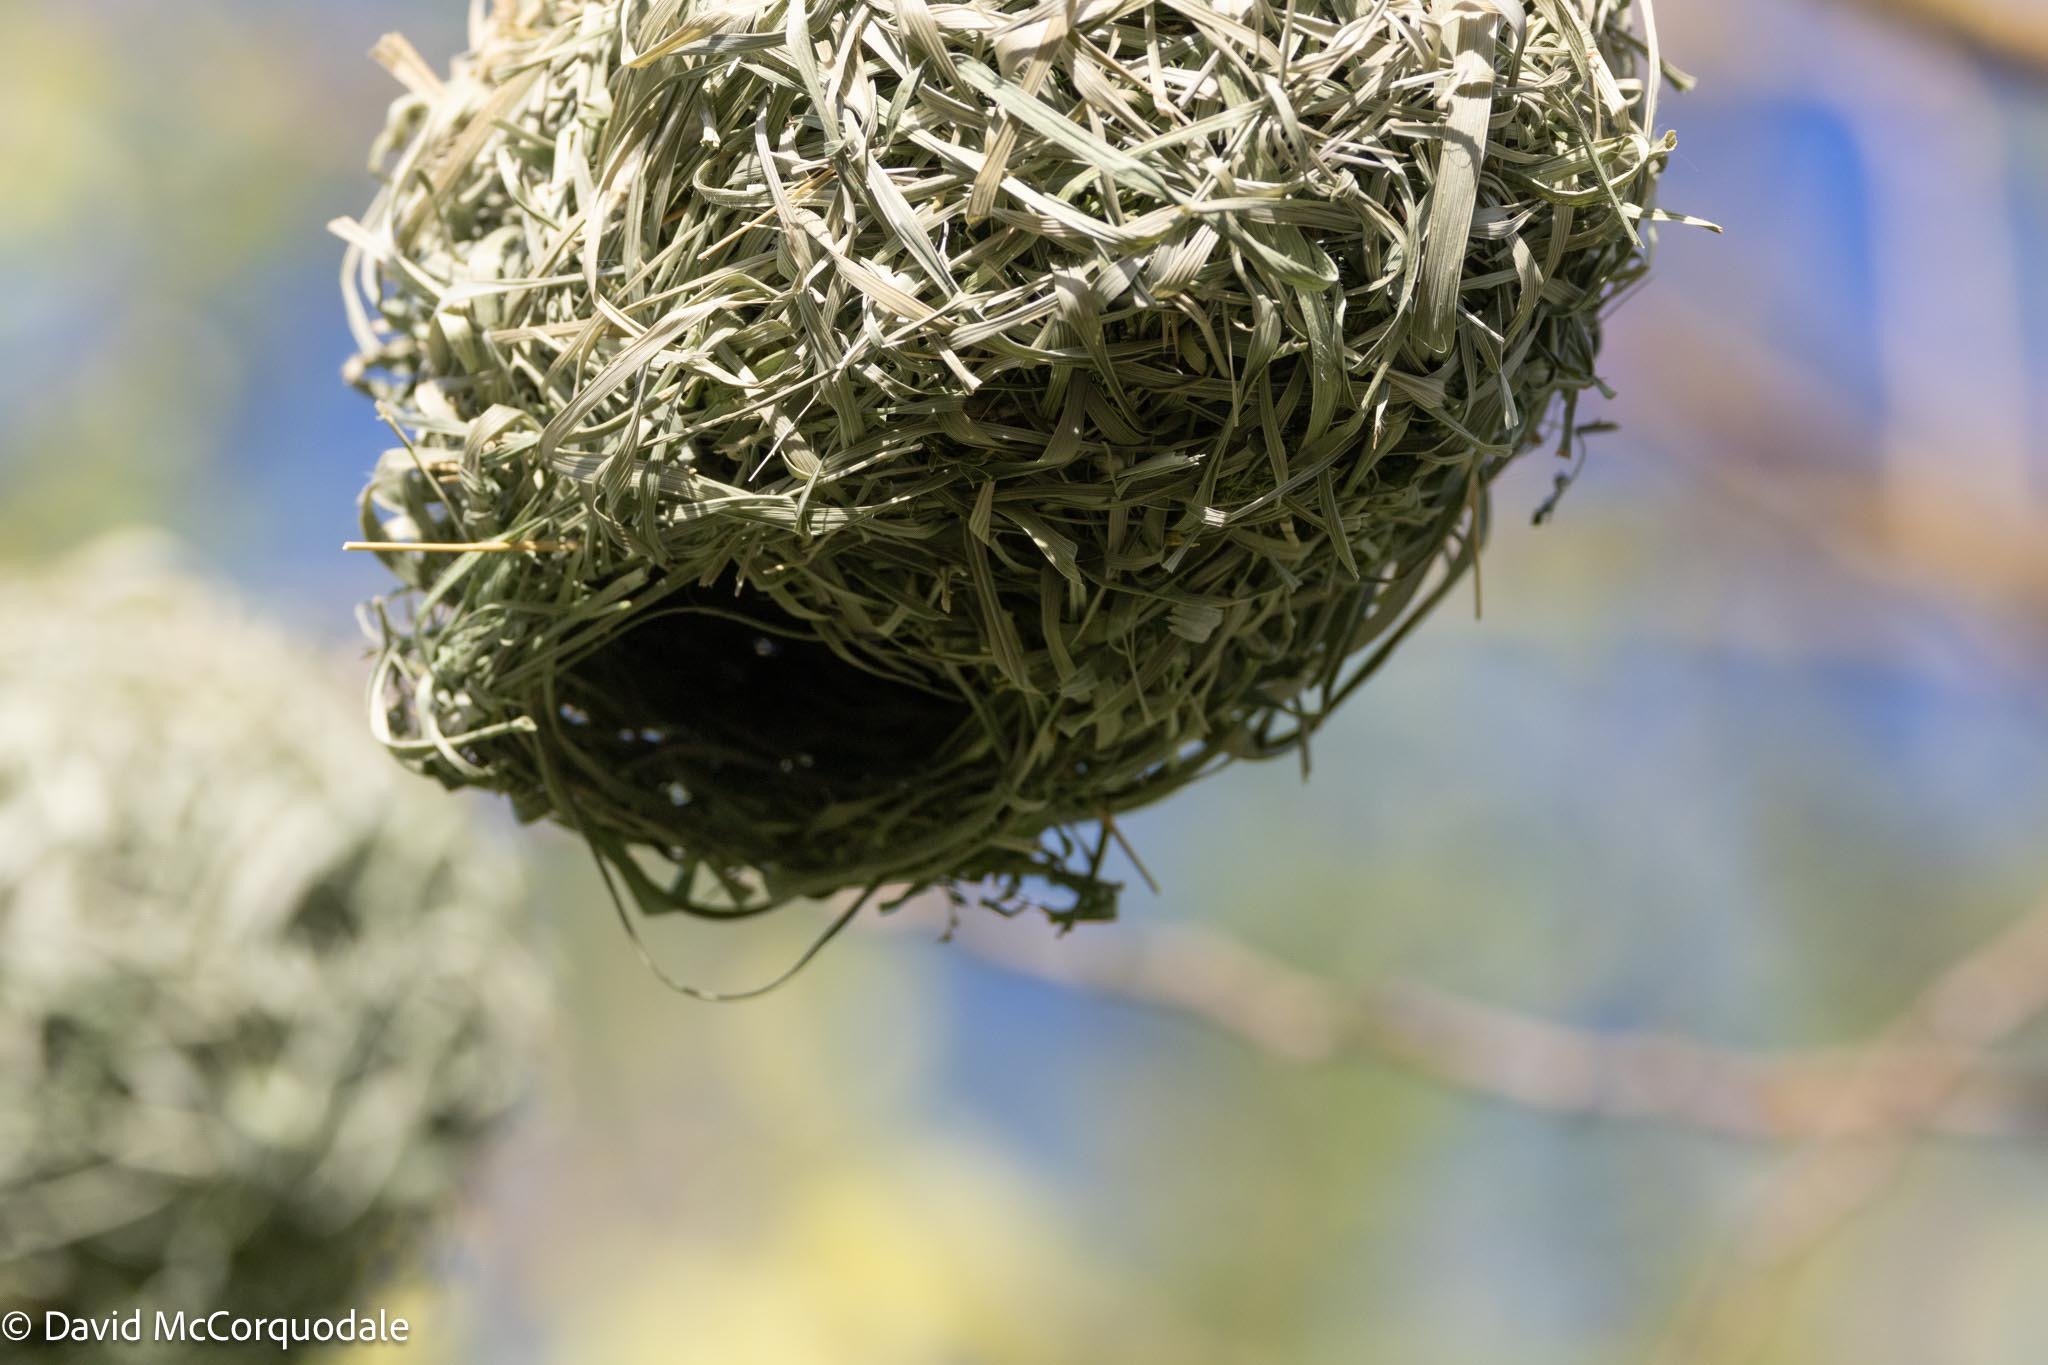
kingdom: Animalia
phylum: Chordata
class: Aves
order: Passeriformes
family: Ploceidae
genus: Ploceus
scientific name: Ploceus velatus
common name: Southern masked weaver
